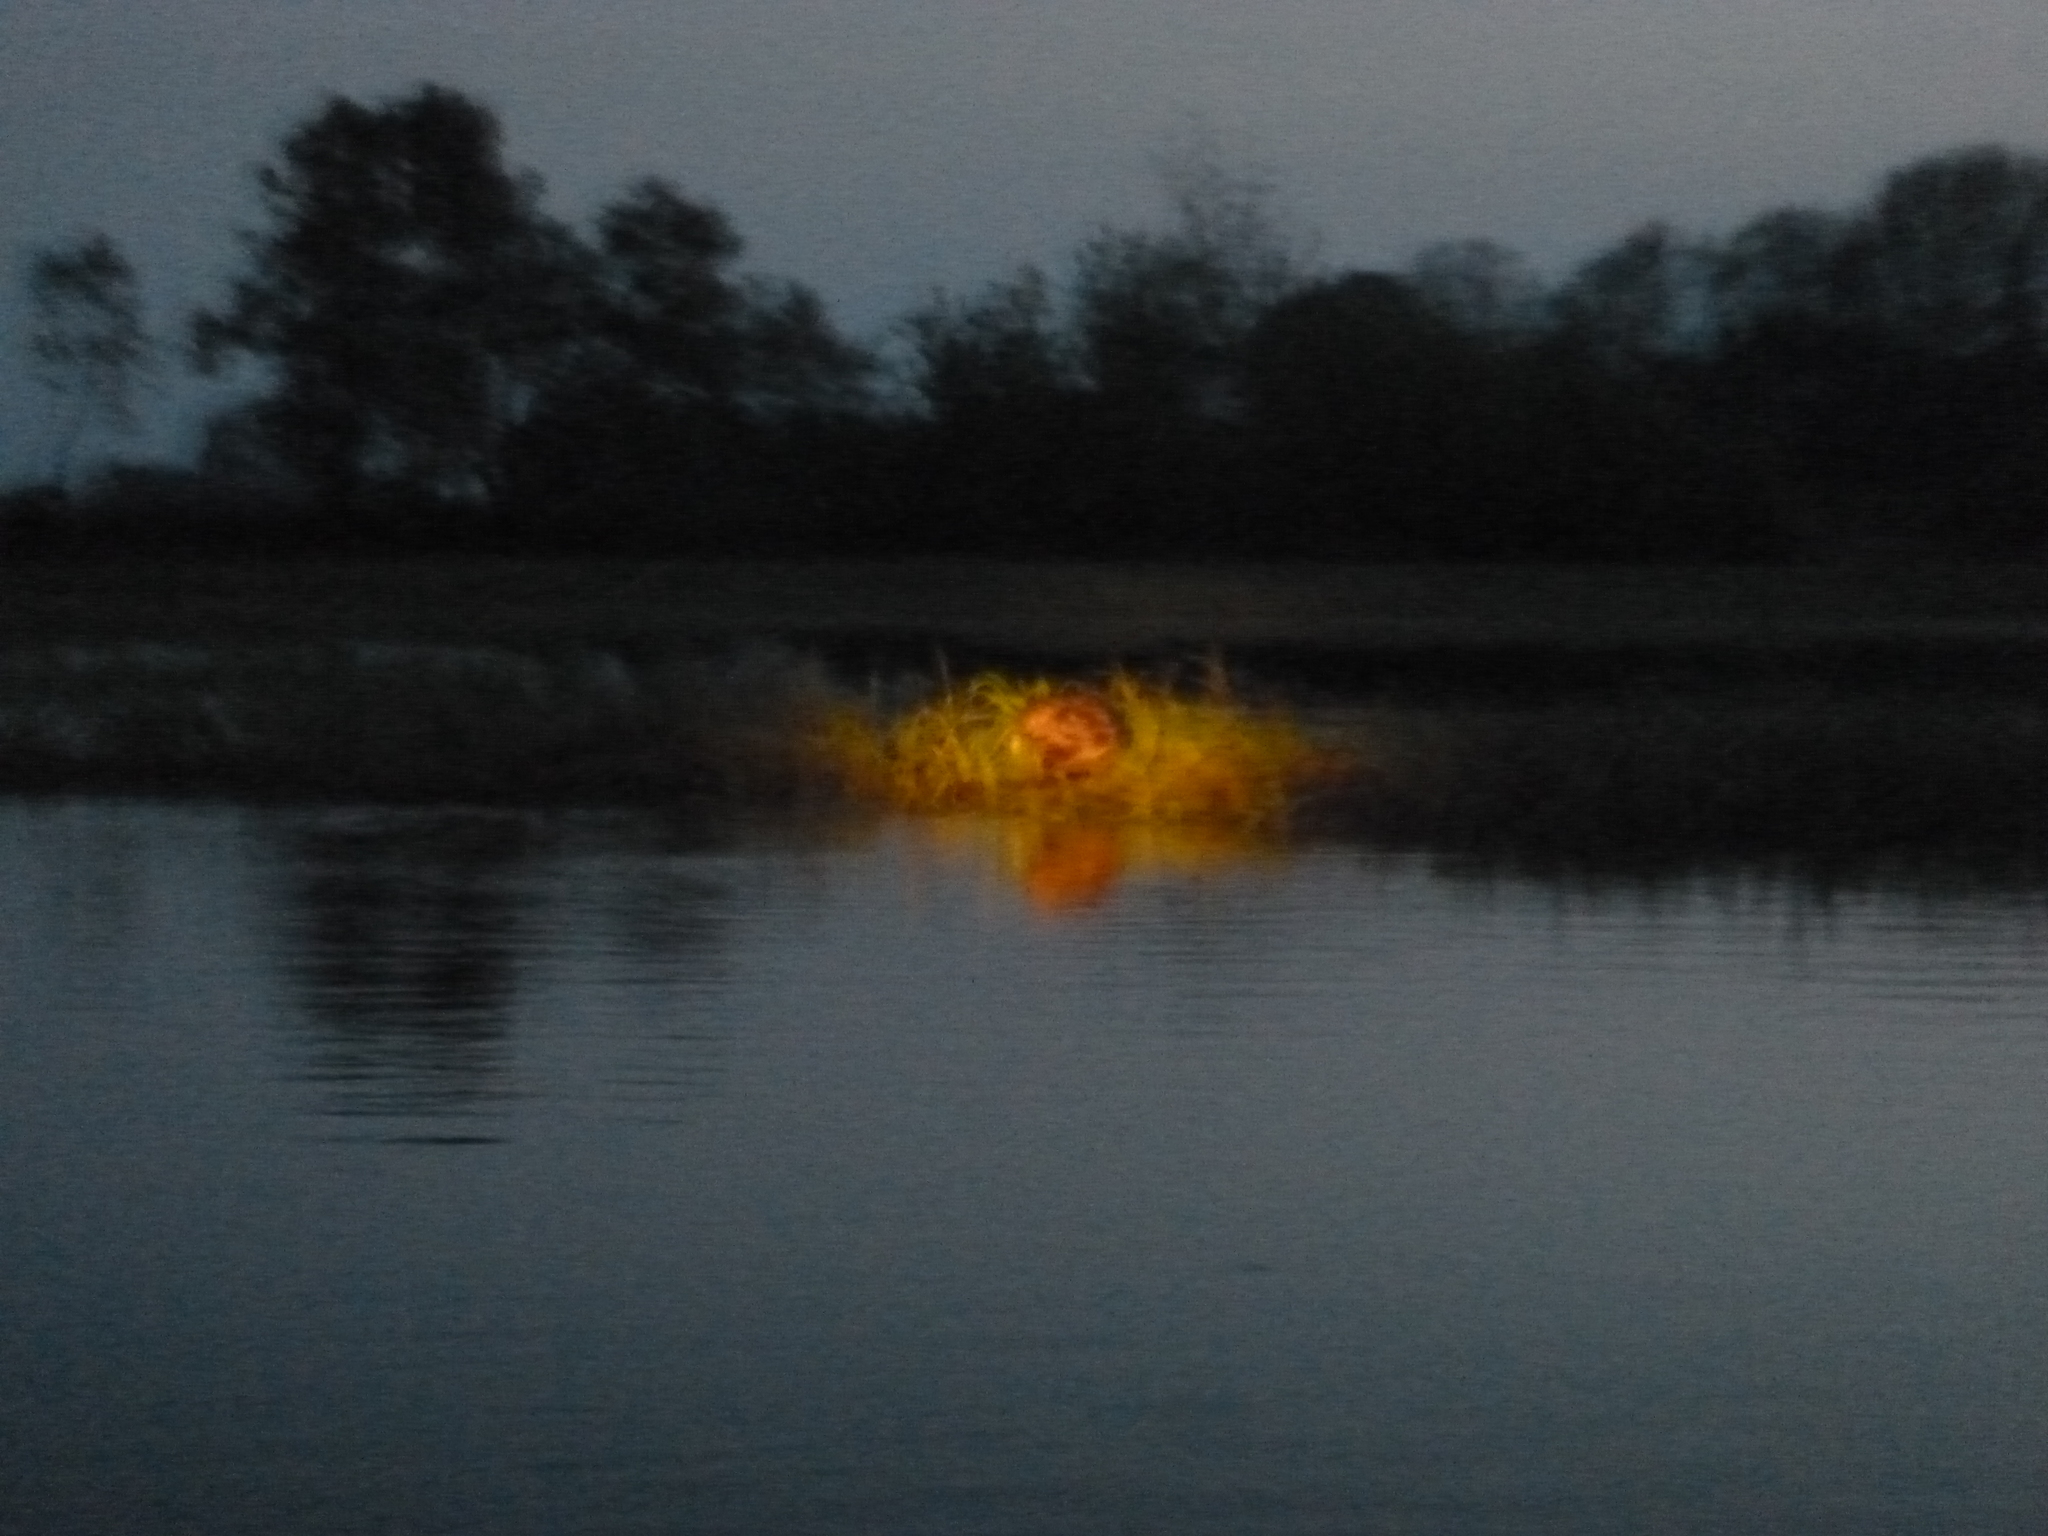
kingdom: Animalia
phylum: Chordata
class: Mammalia
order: Rodentia
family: Castoridae
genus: Castor
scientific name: Castor fiber
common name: Eurasian beaver
